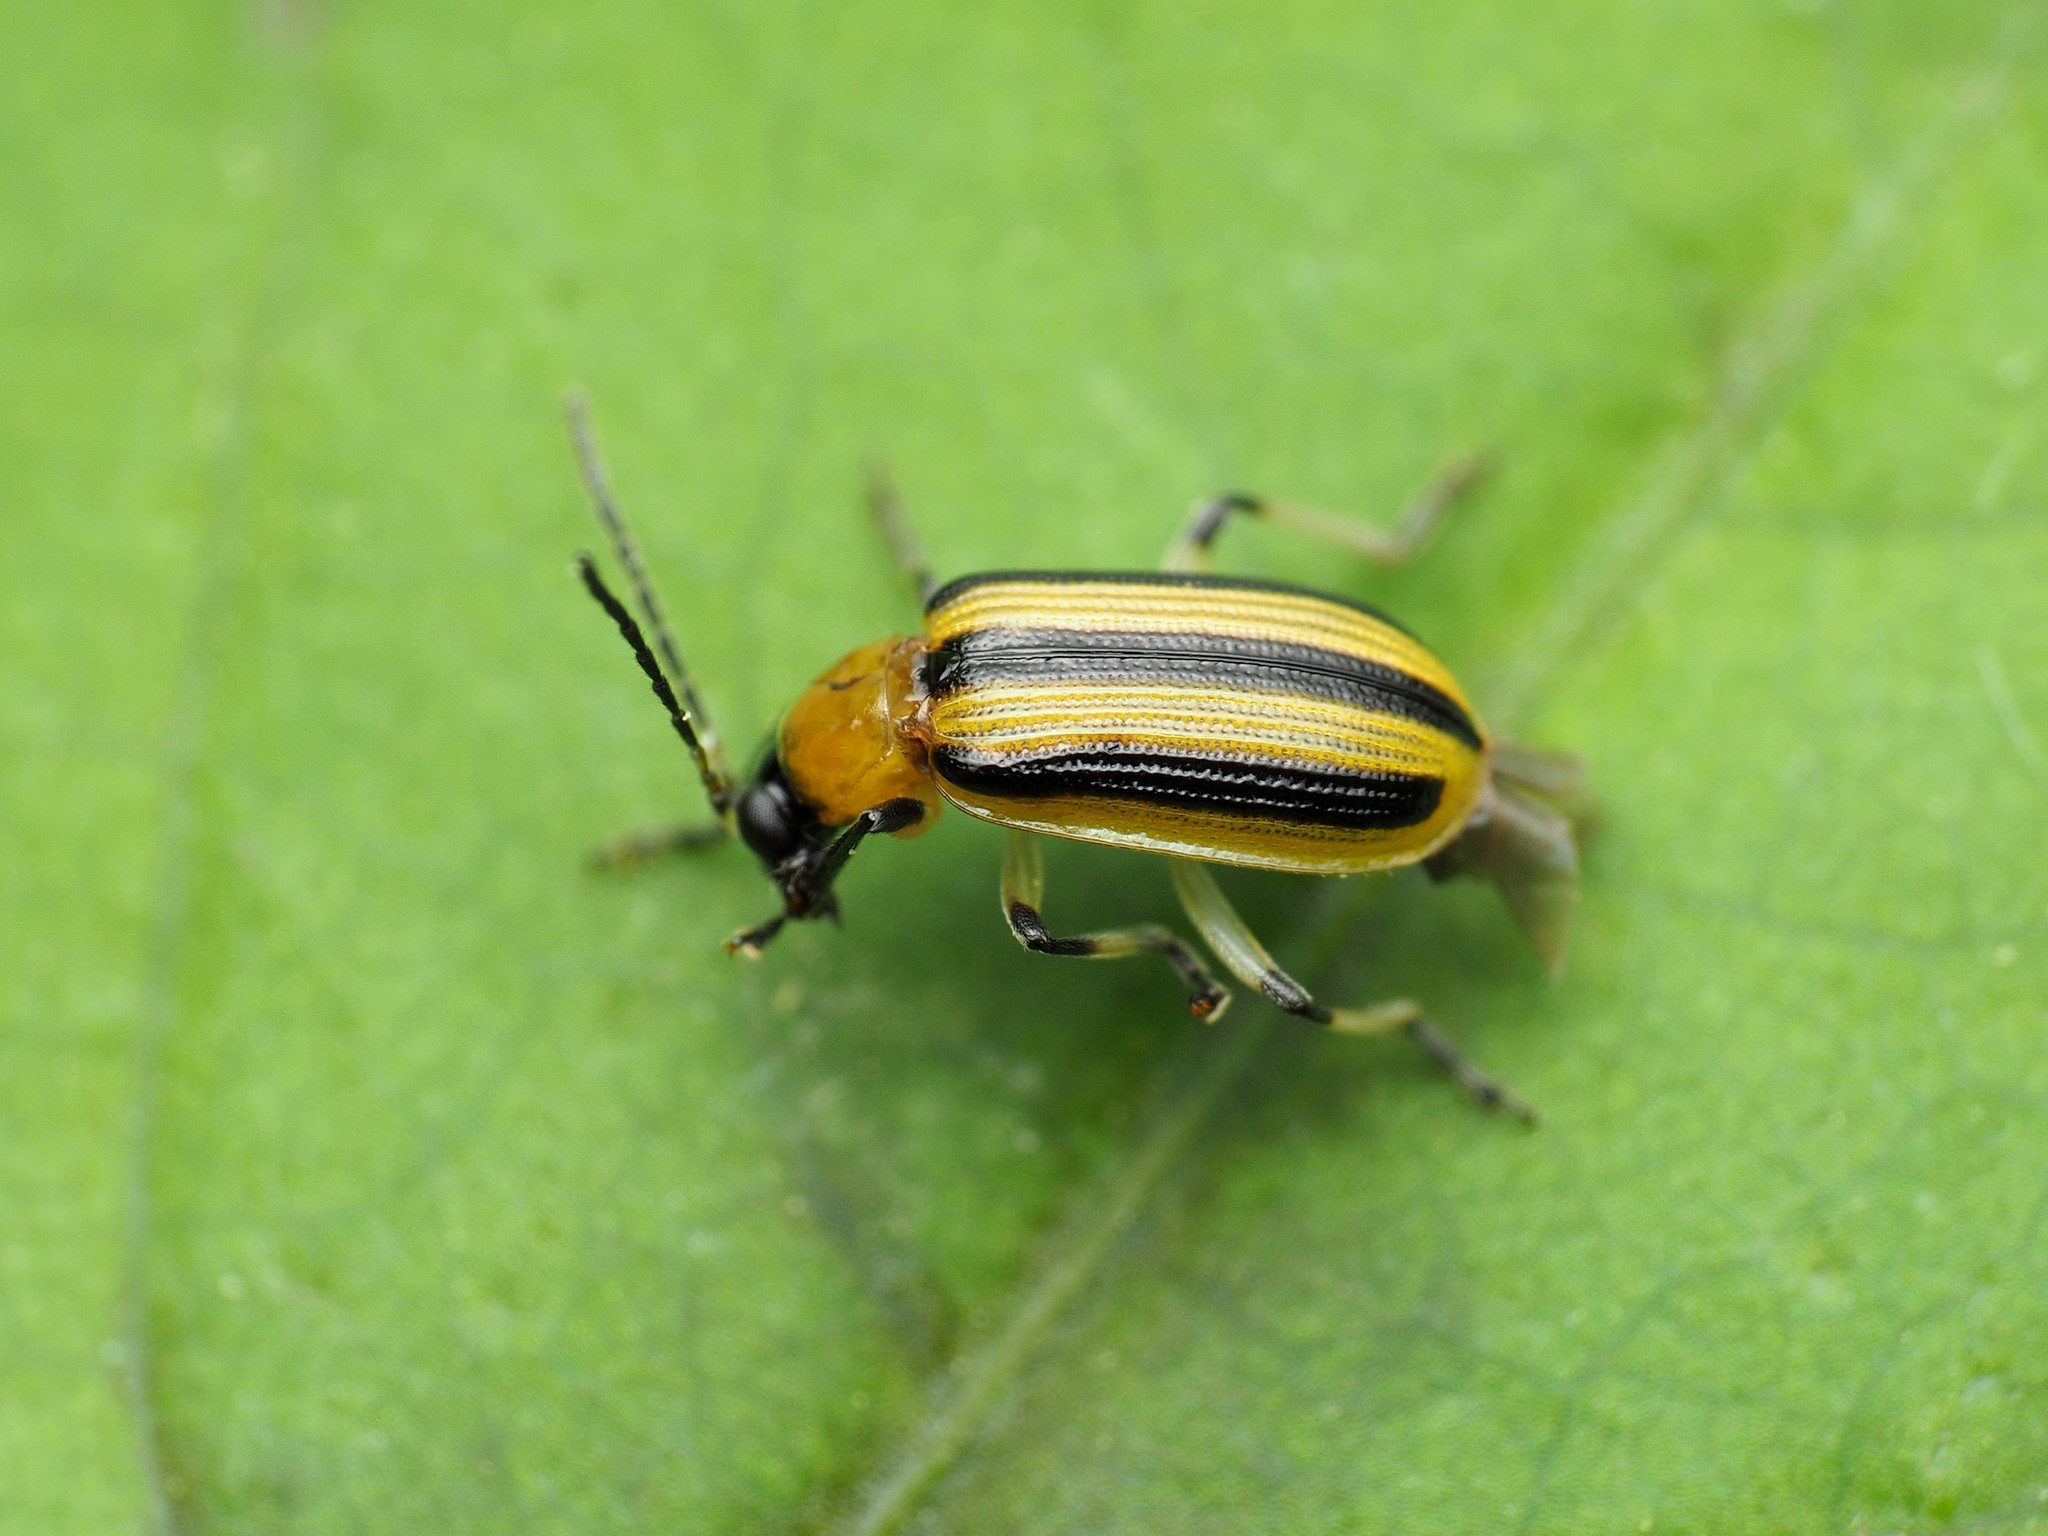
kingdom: Animalia
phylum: Arthropoda
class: Insecta
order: Coleoptera
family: Chrysomelidae
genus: Acalymma
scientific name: Acalymma vittatum
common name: Striped cucumber beetle
